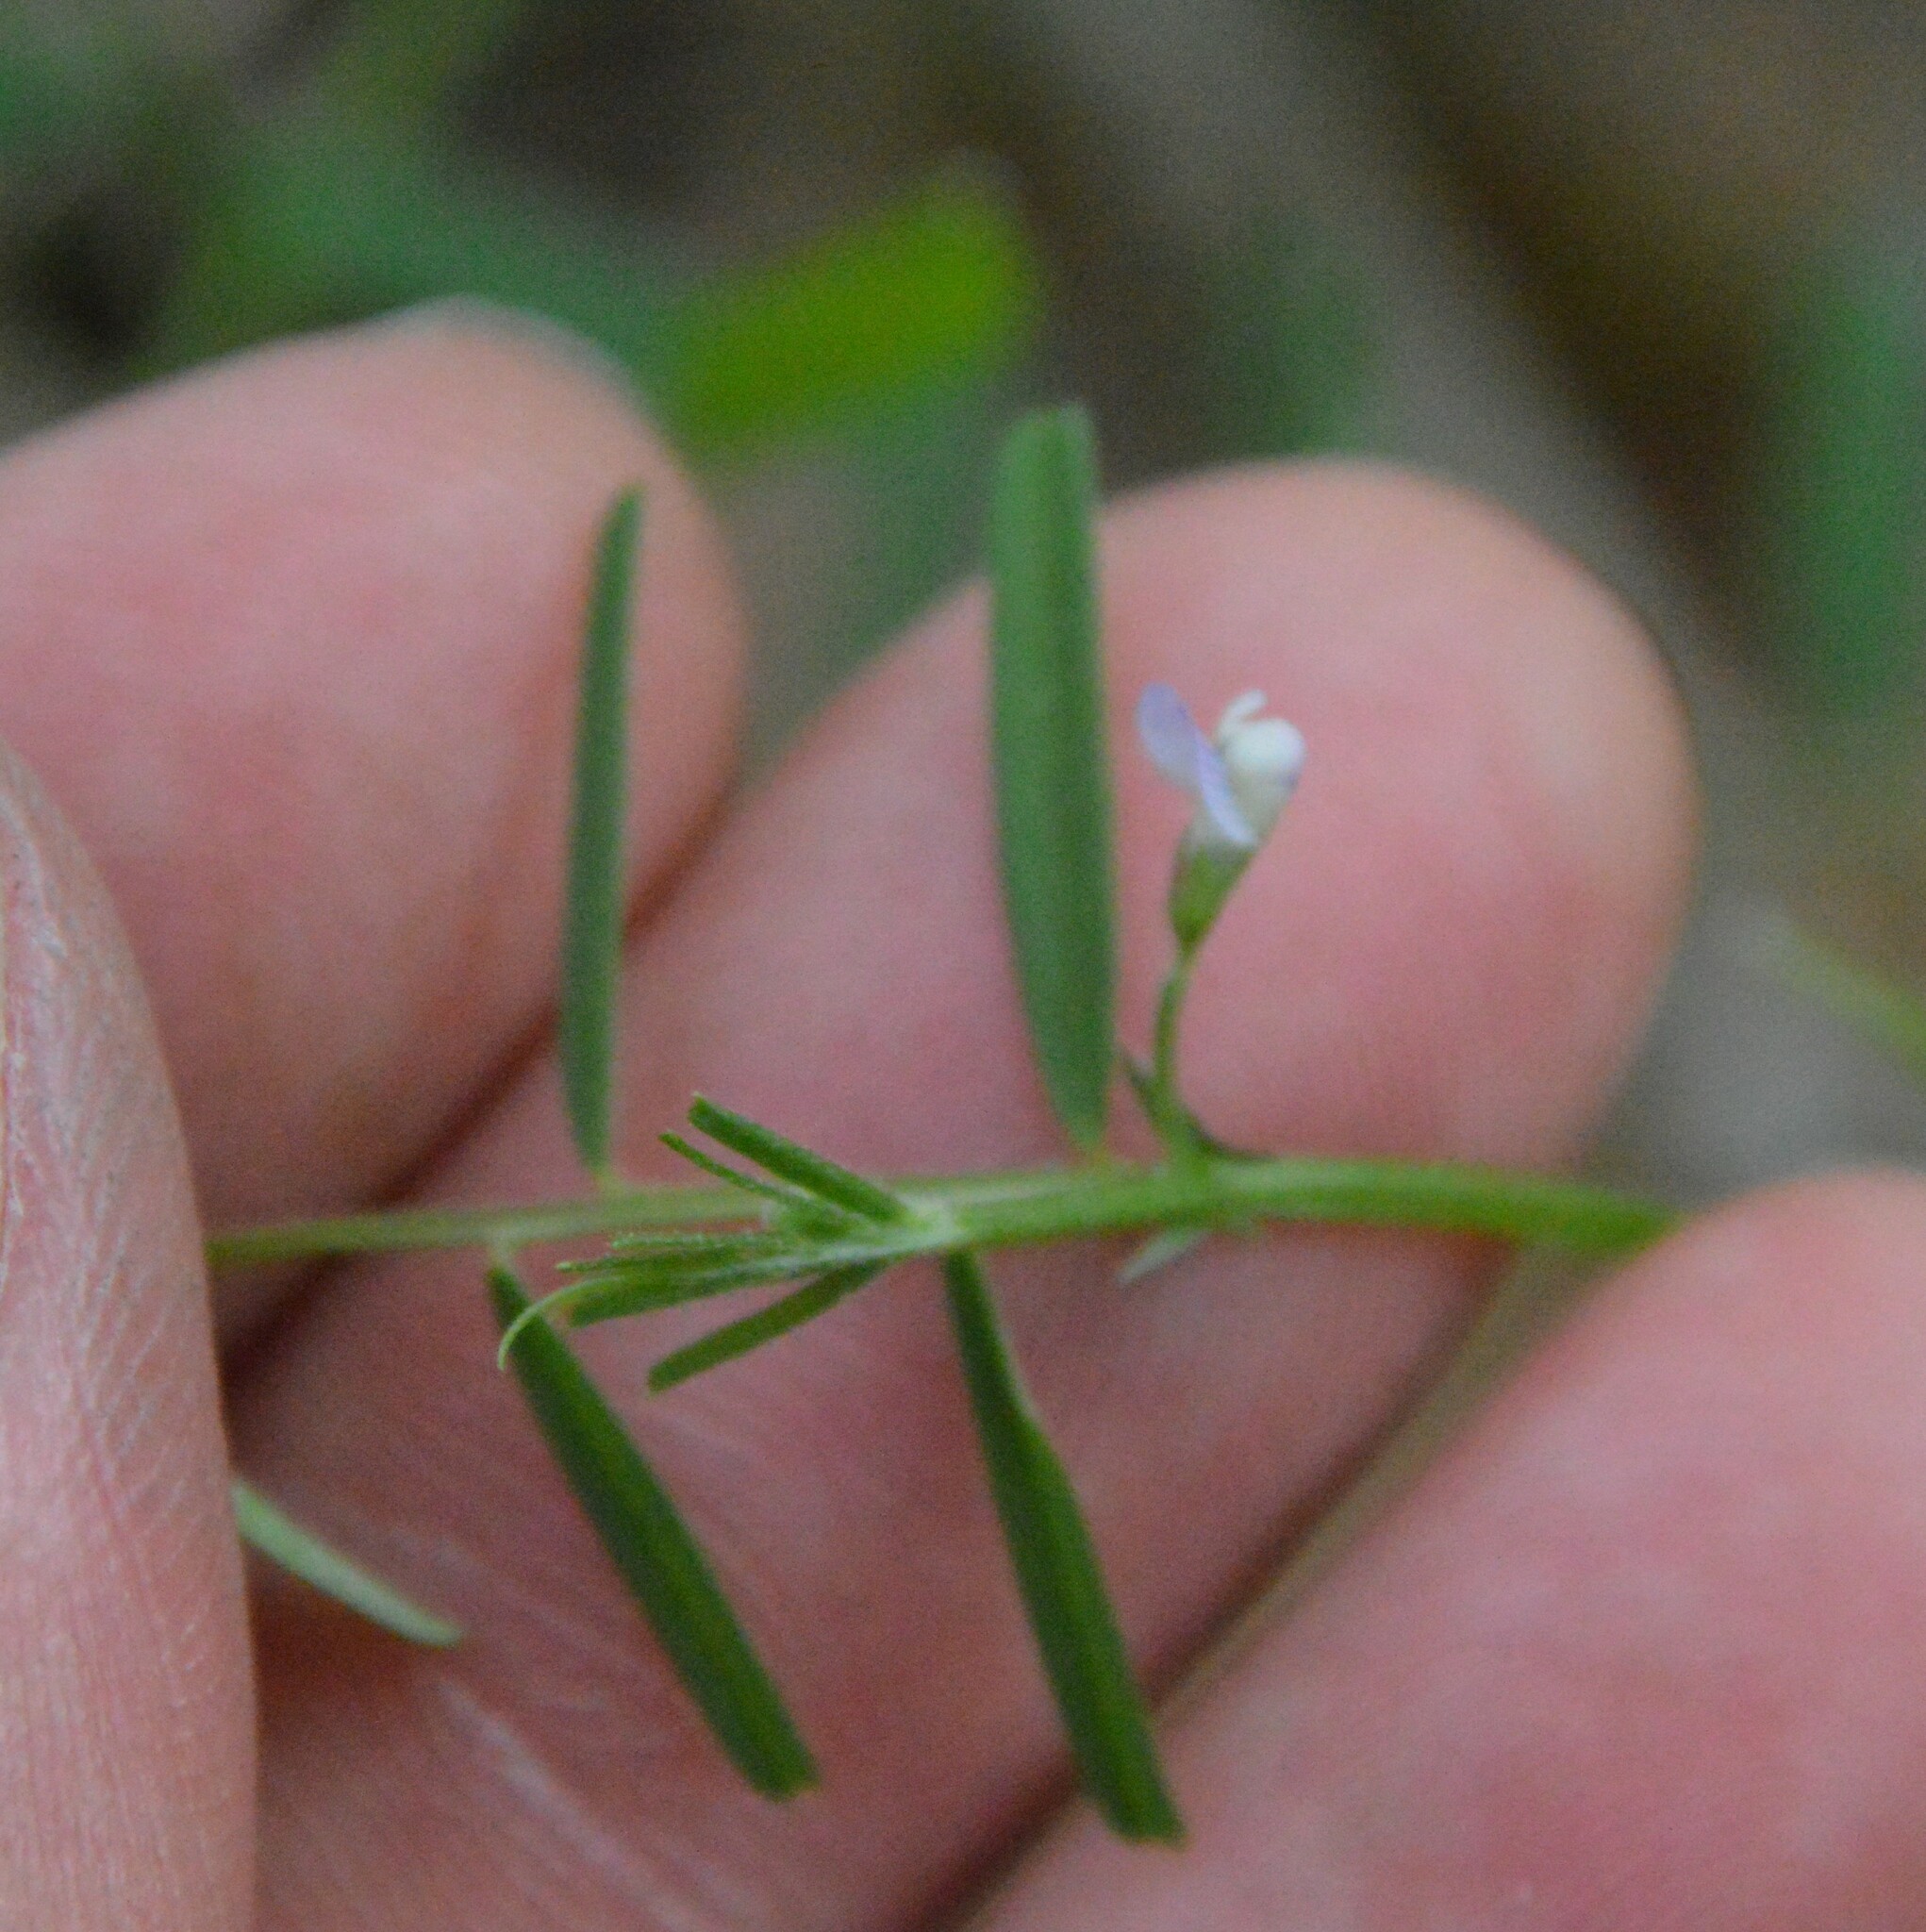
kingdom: Plantae
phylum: Tracheophyta
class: Magnoliopsida
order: Fabales
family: Fabaceae
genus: Vicia
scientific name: Vicia minutiflora
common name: Pygmy-flower vetch
